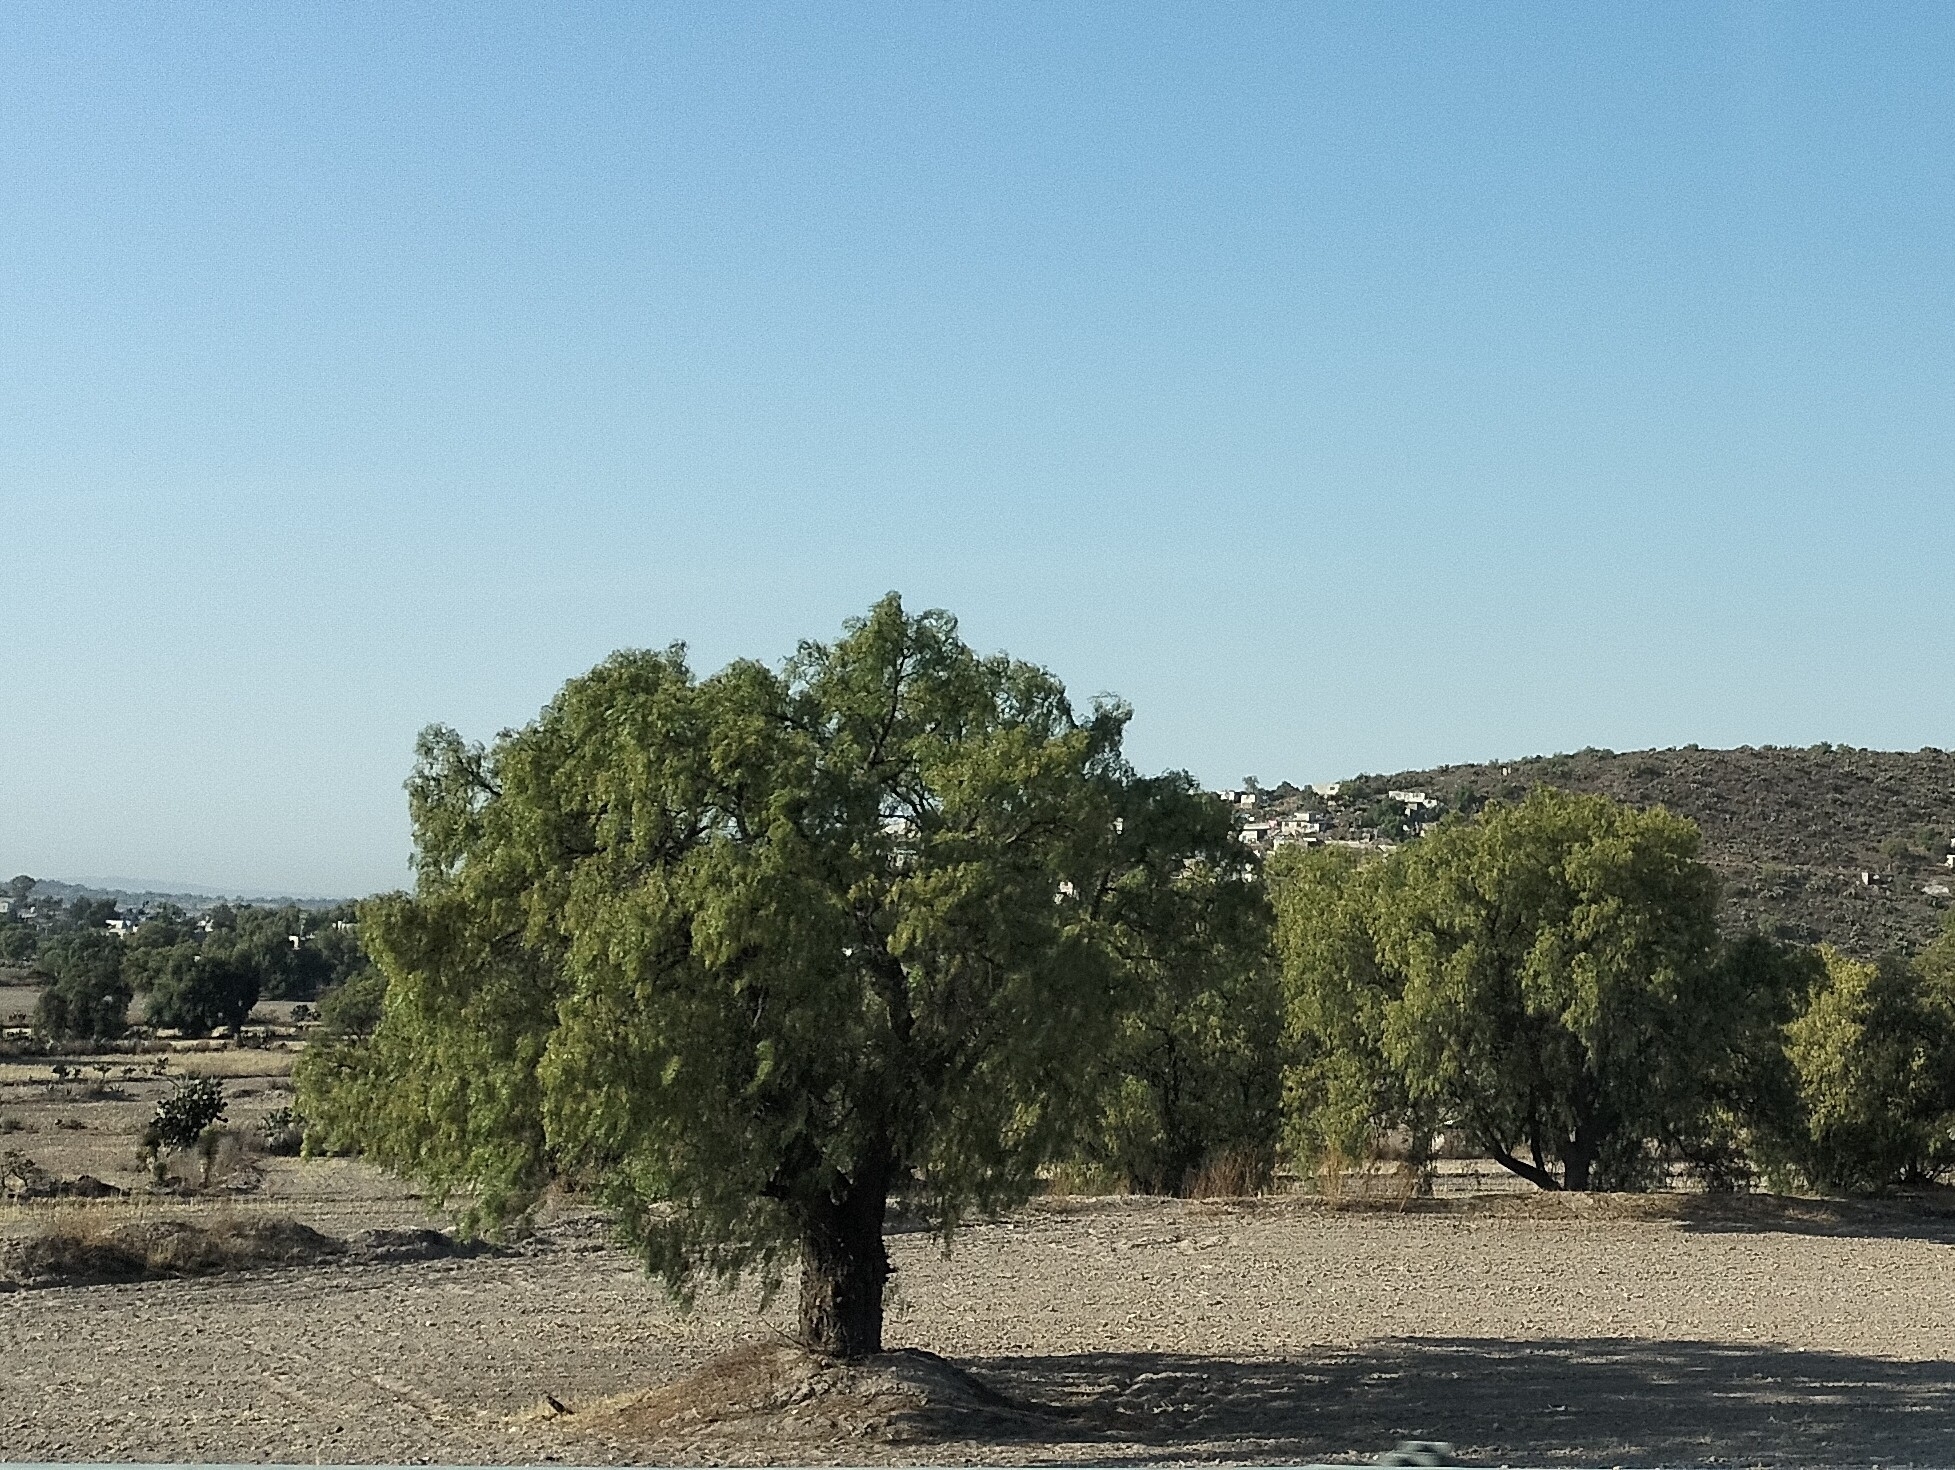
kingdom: Plantae
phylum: Tracheophyta
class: Magnoliopsida
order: Sapindales
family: Anacardiaceae
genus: Schinus
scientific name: Schinus molle
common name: Peruvian peppertree
